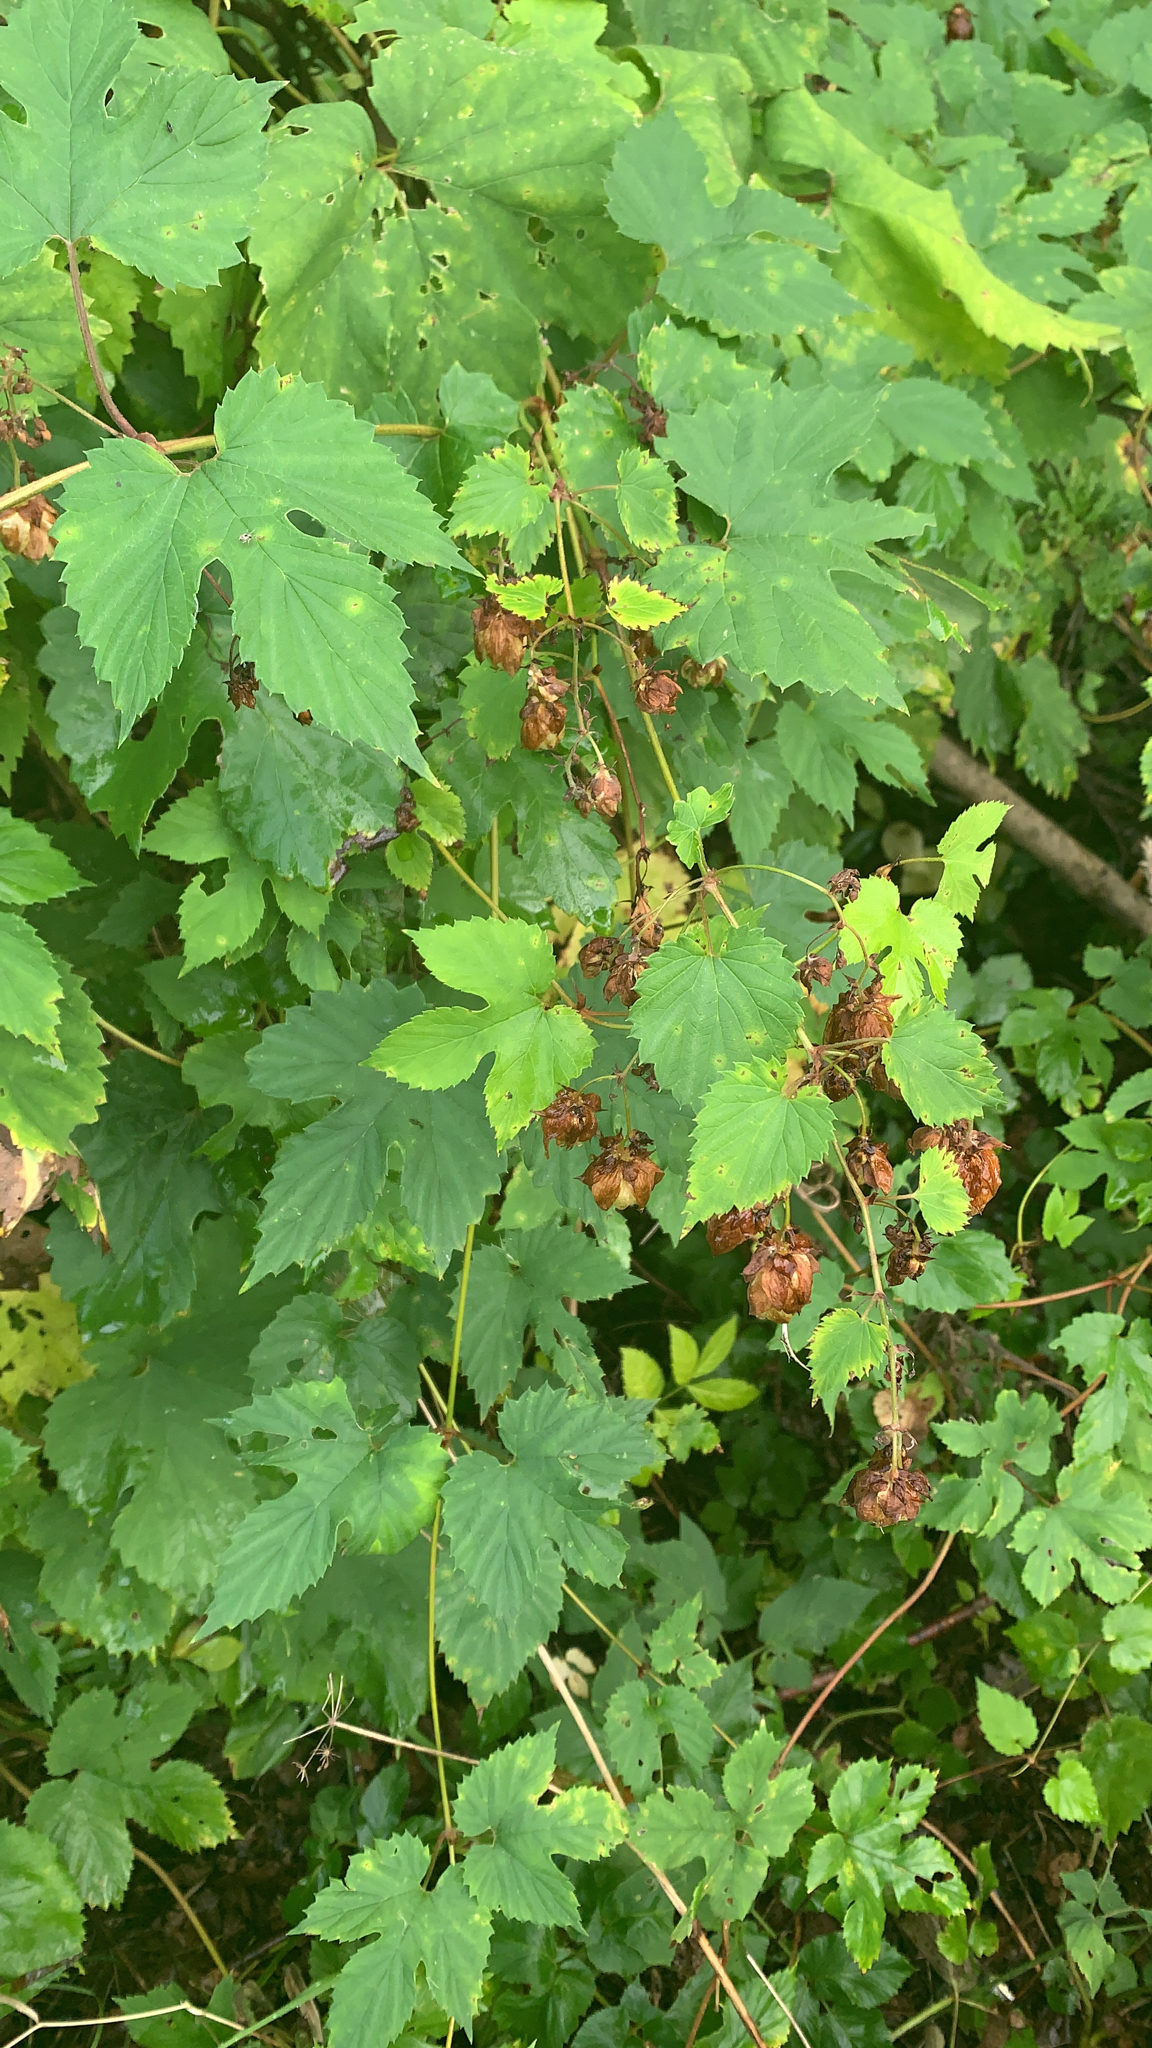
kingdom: Plantae
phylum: Tracheophyta
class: Magnoliopsida
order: Rosales
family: Cannabaceae
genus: Humulus
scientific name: Humulus lupulus
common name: Hop
